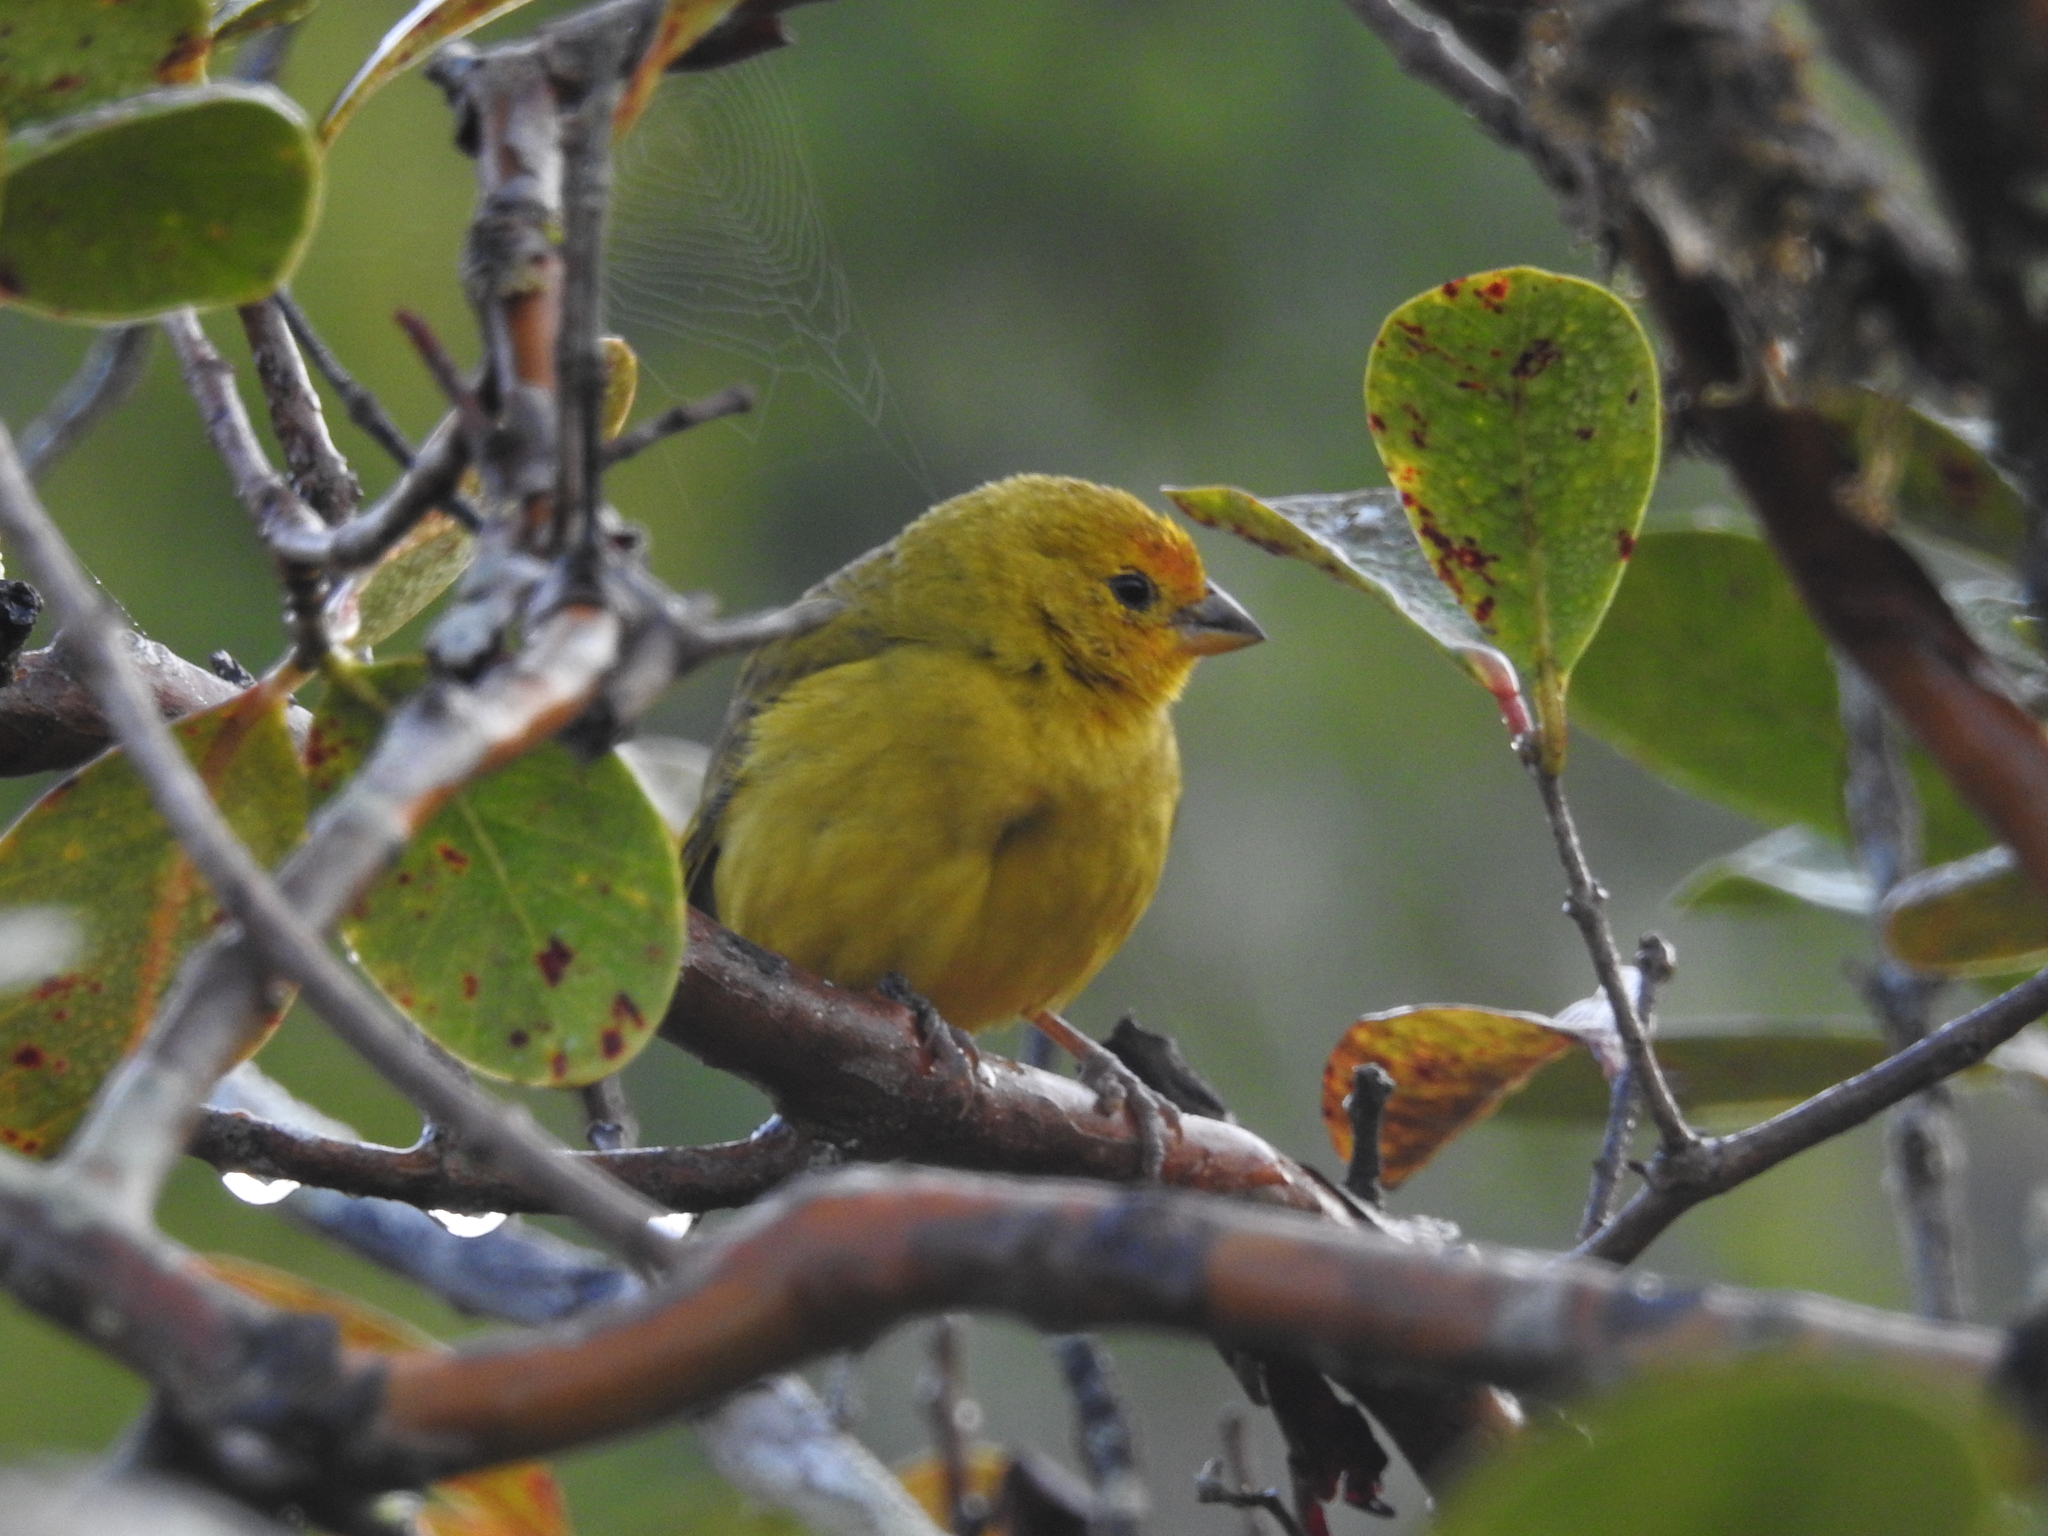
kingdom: Animalia
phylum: Chordata
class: Aves
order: Passeriformes
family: Thraupidae
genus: Sicalis
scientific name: Sicalis flaveola
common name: Saffron finch
